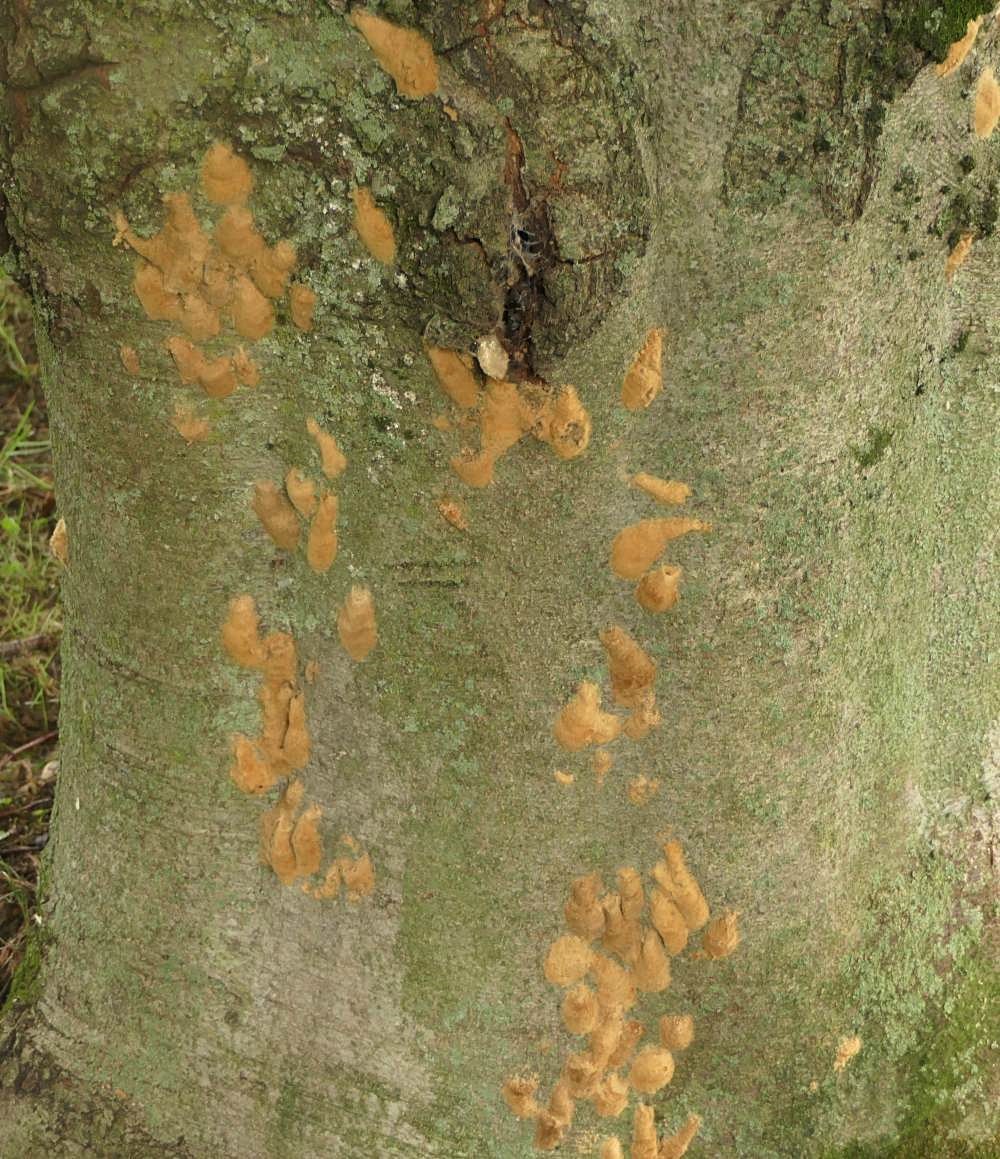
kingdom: Animalia
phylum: Arthropoda
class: Insecta
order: Lepidoptera
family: Erebidae
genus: Lymantria
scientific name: Lymantria dispar
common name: Gypsy moth
